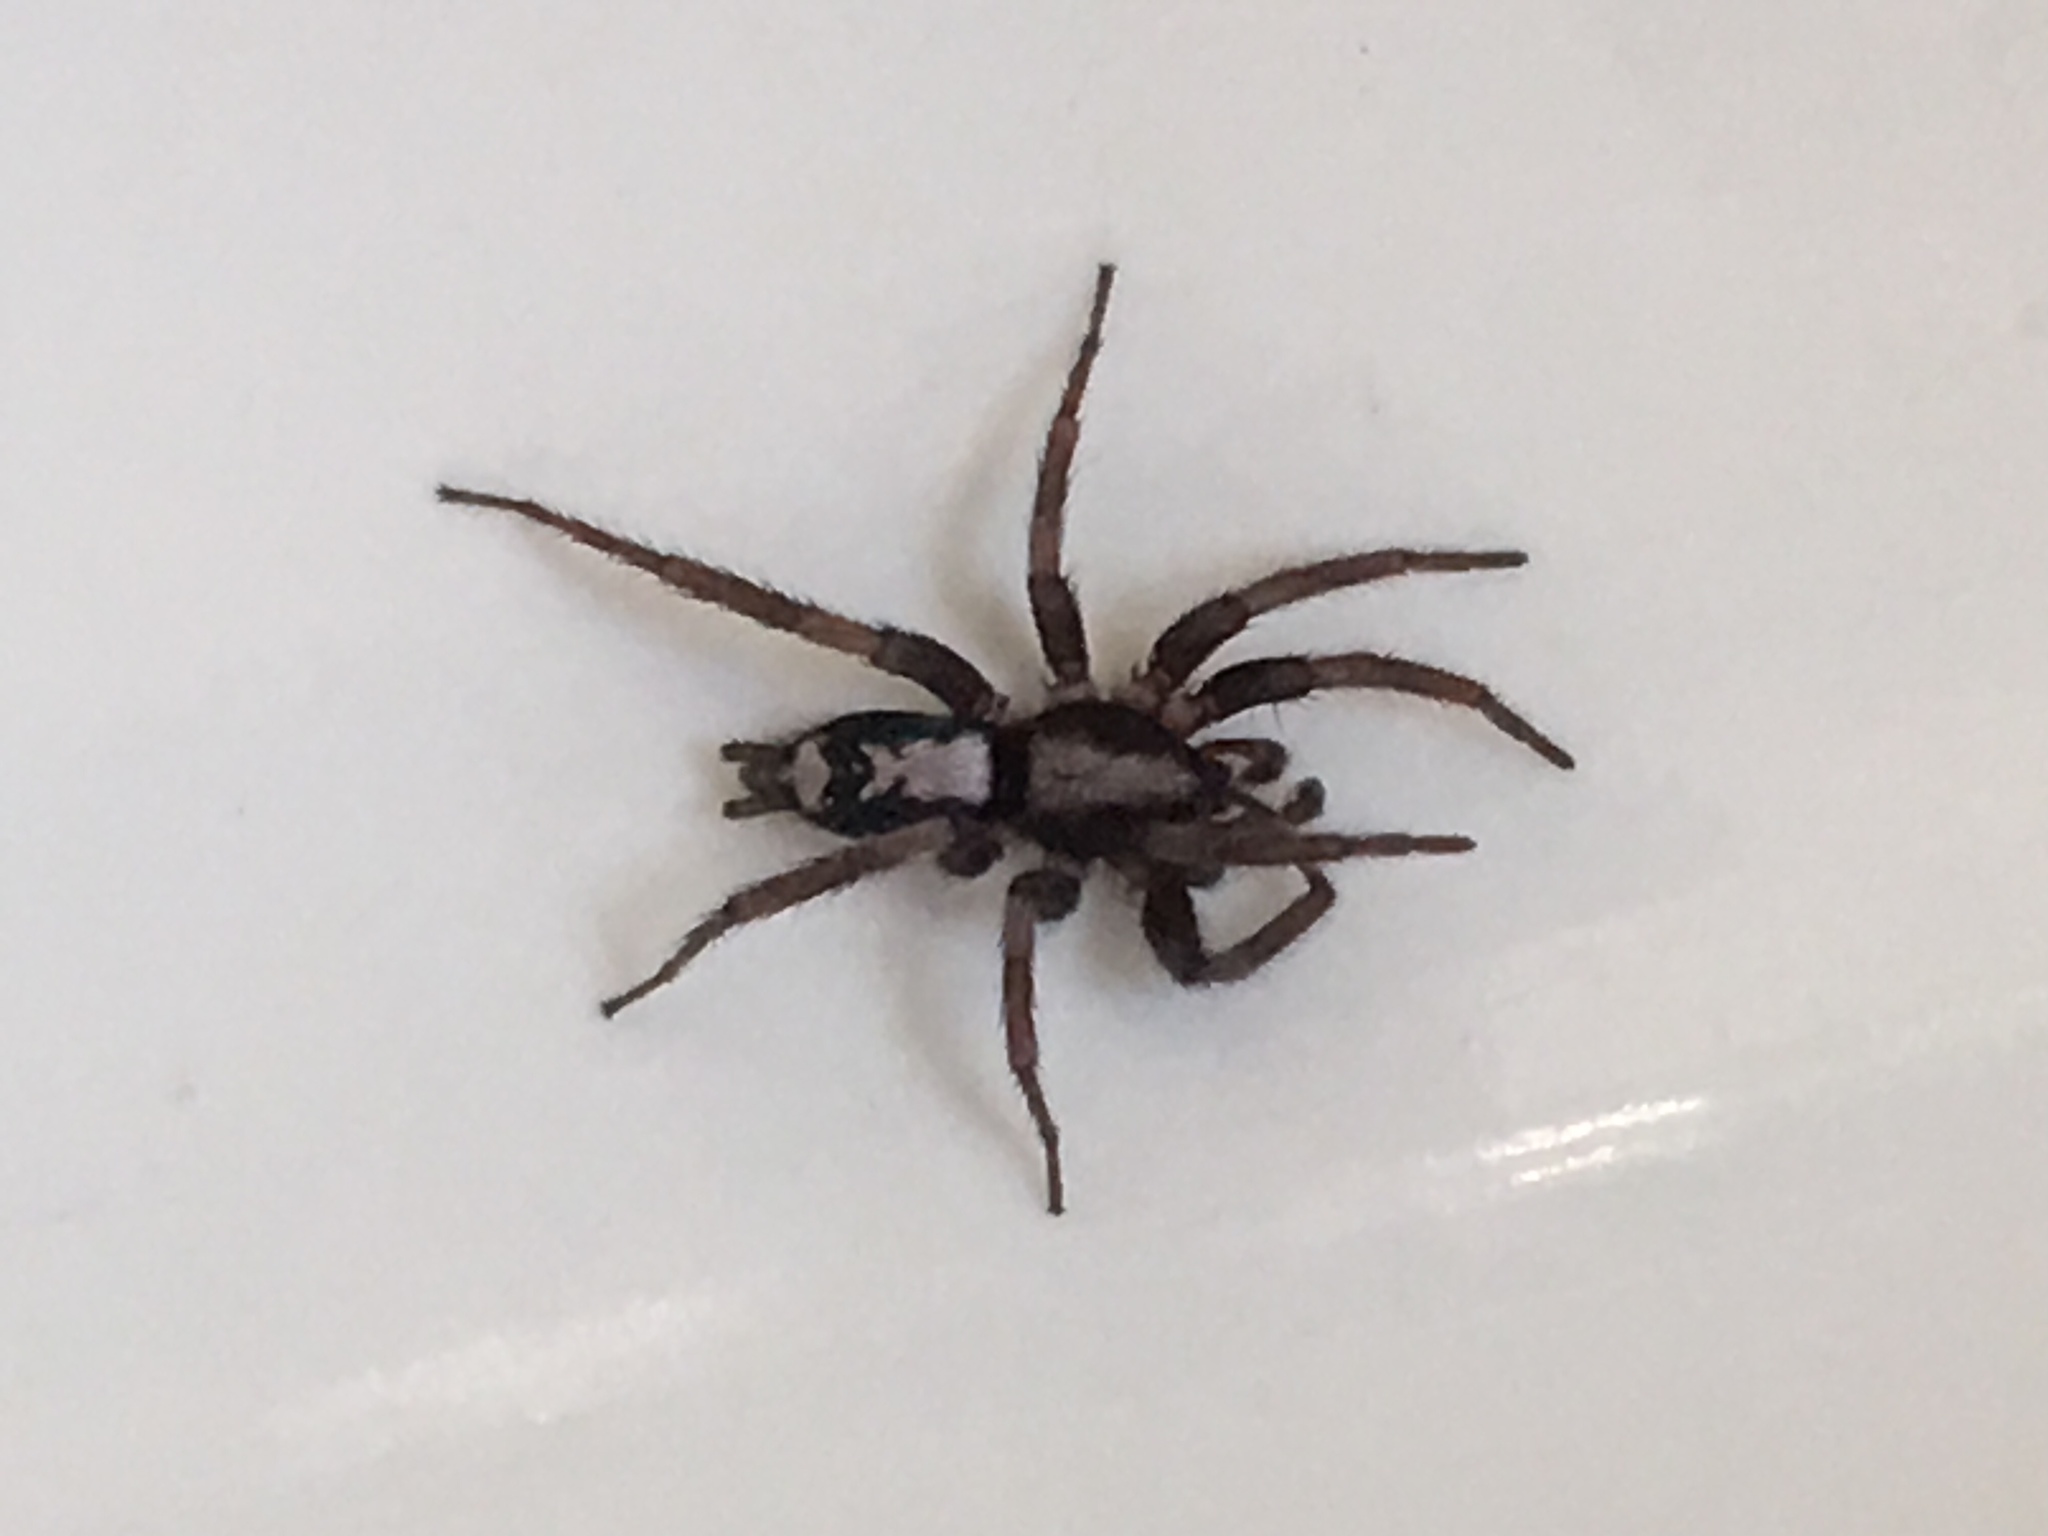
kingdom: Animalia
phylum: Arthropoda
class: Arachnida
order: Araneae
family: Gnaphosidae
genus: Herpyllus
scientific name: Herpyllus ecclesiasticus
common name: Eastern parson spider
